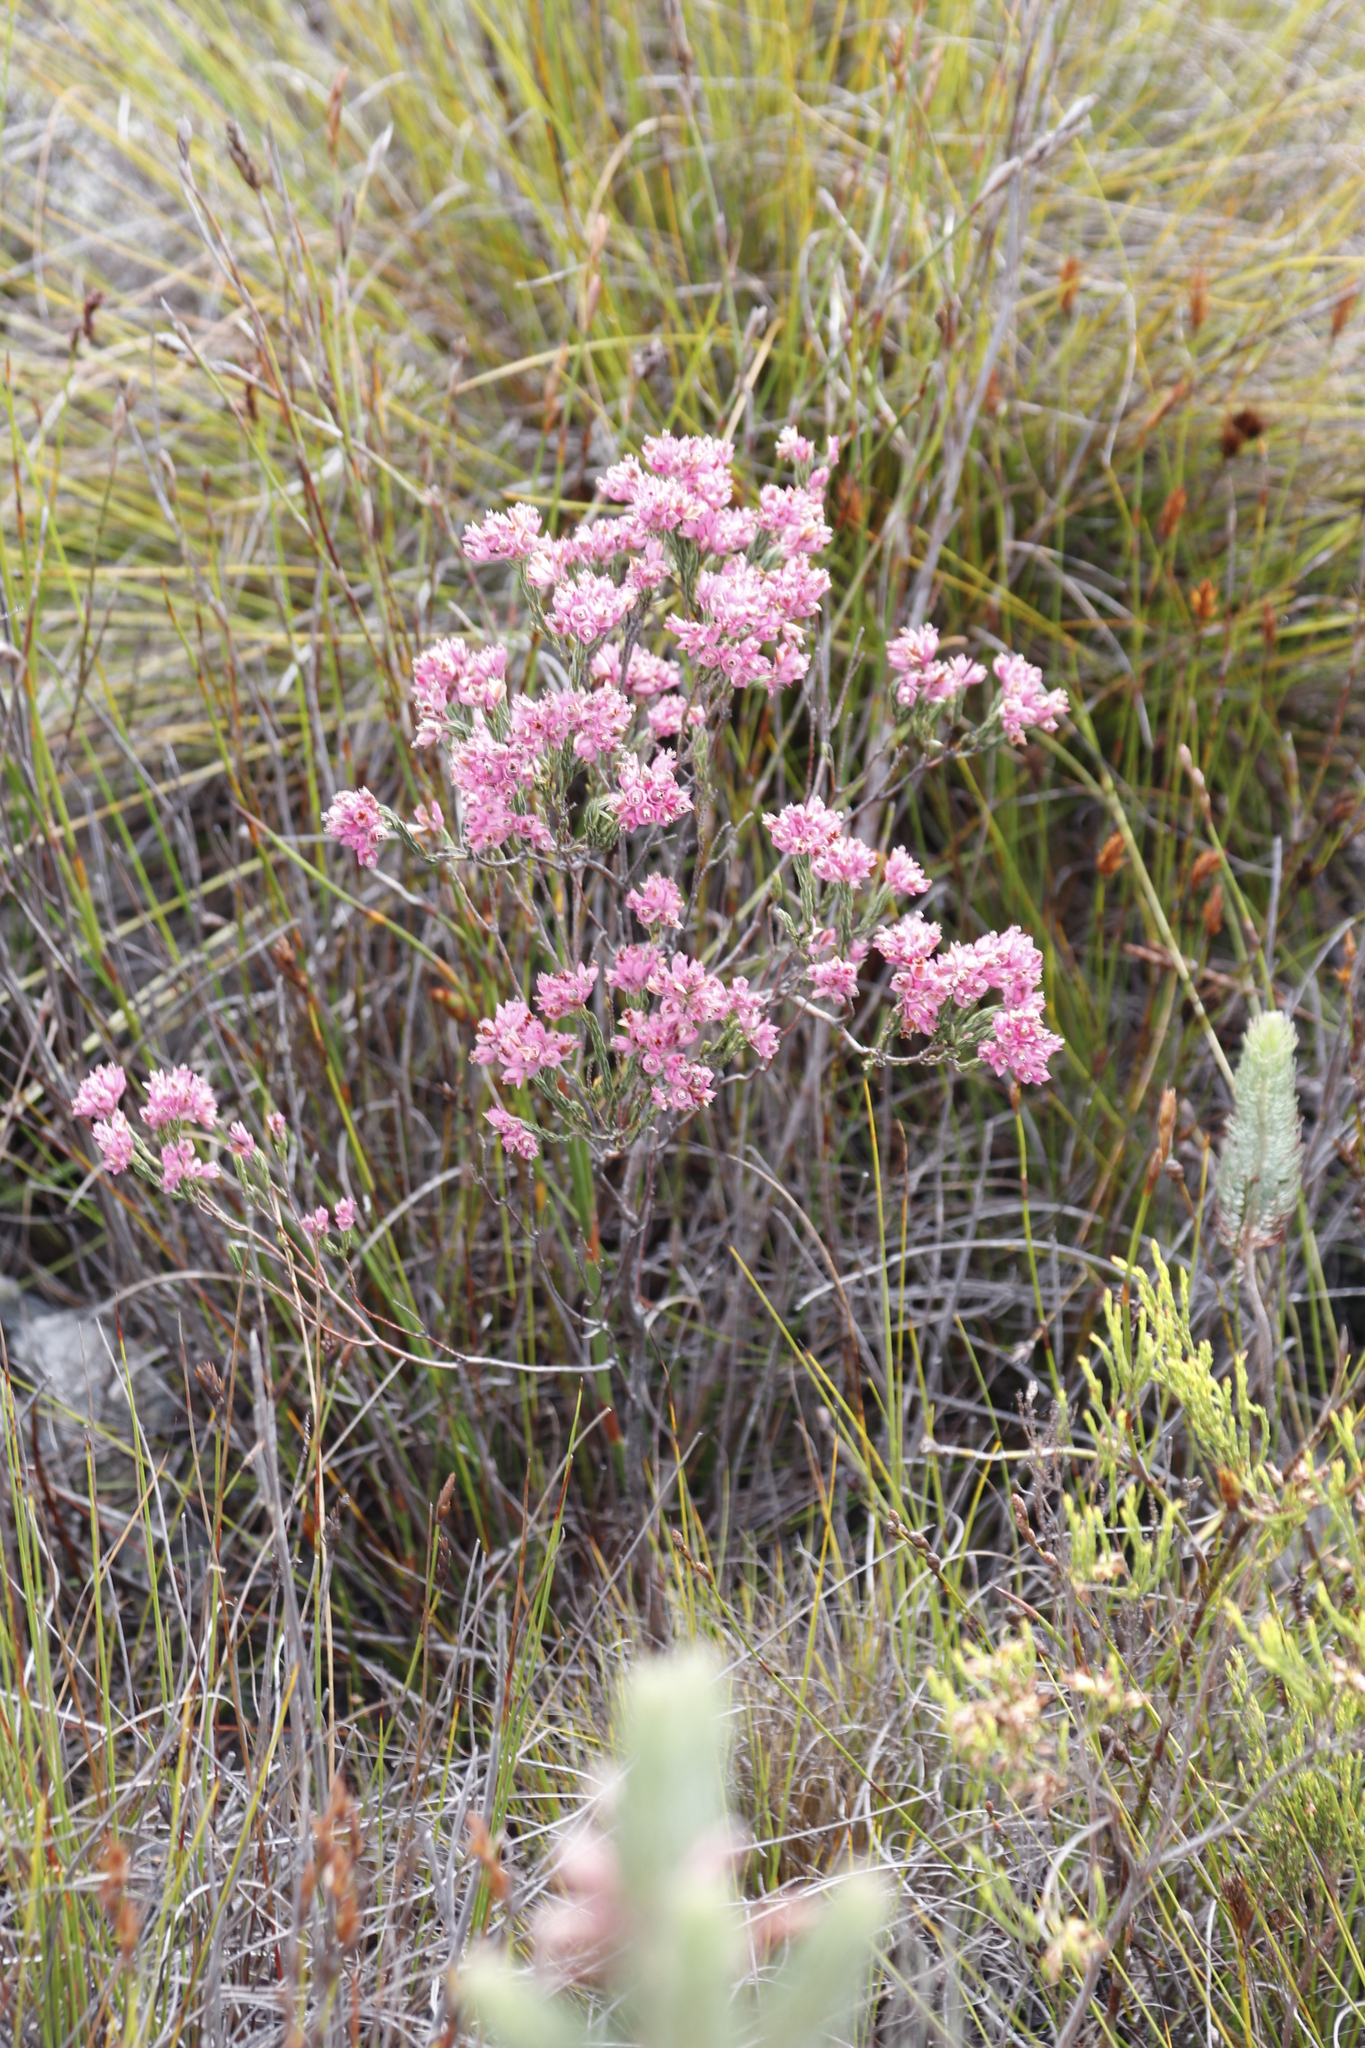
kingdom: Plantae
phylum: Tracheophyta
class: Magnoliopsida
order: Ericales
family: Ericaceae
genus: Erica
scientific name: Erica corifolia
